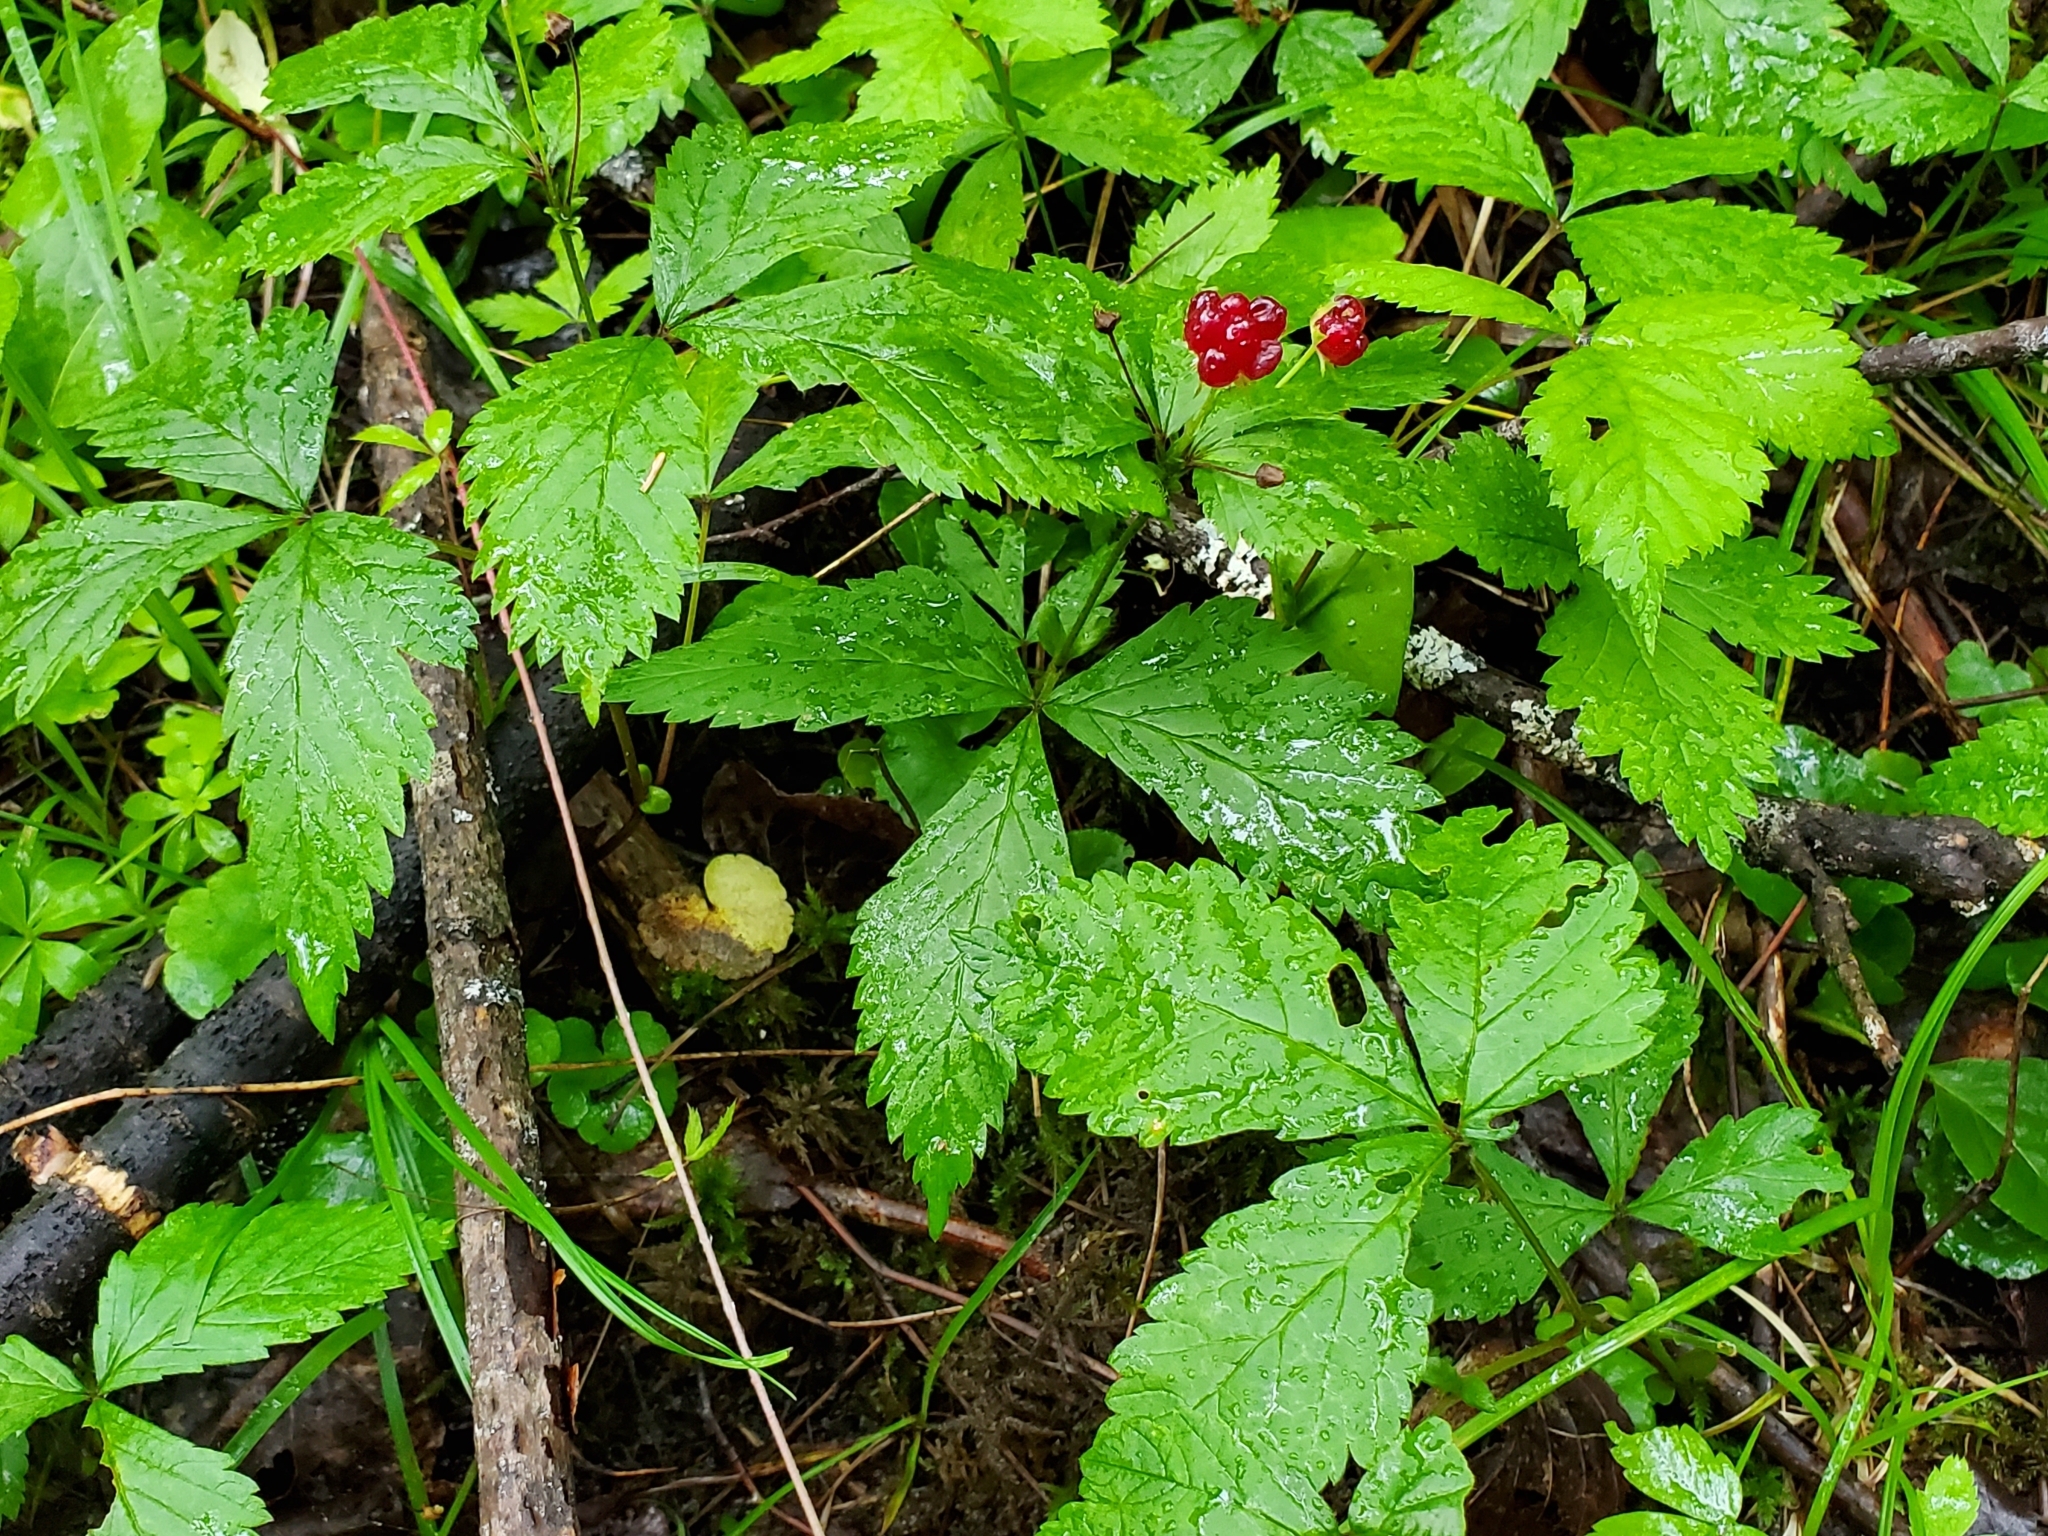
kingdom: Plantae
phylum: Tracheophyta
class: Magnoliopsida
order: Rosales
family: Rosaceae
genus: Rubus
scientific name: Rubus pubescens
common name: Dwarf raspberry
